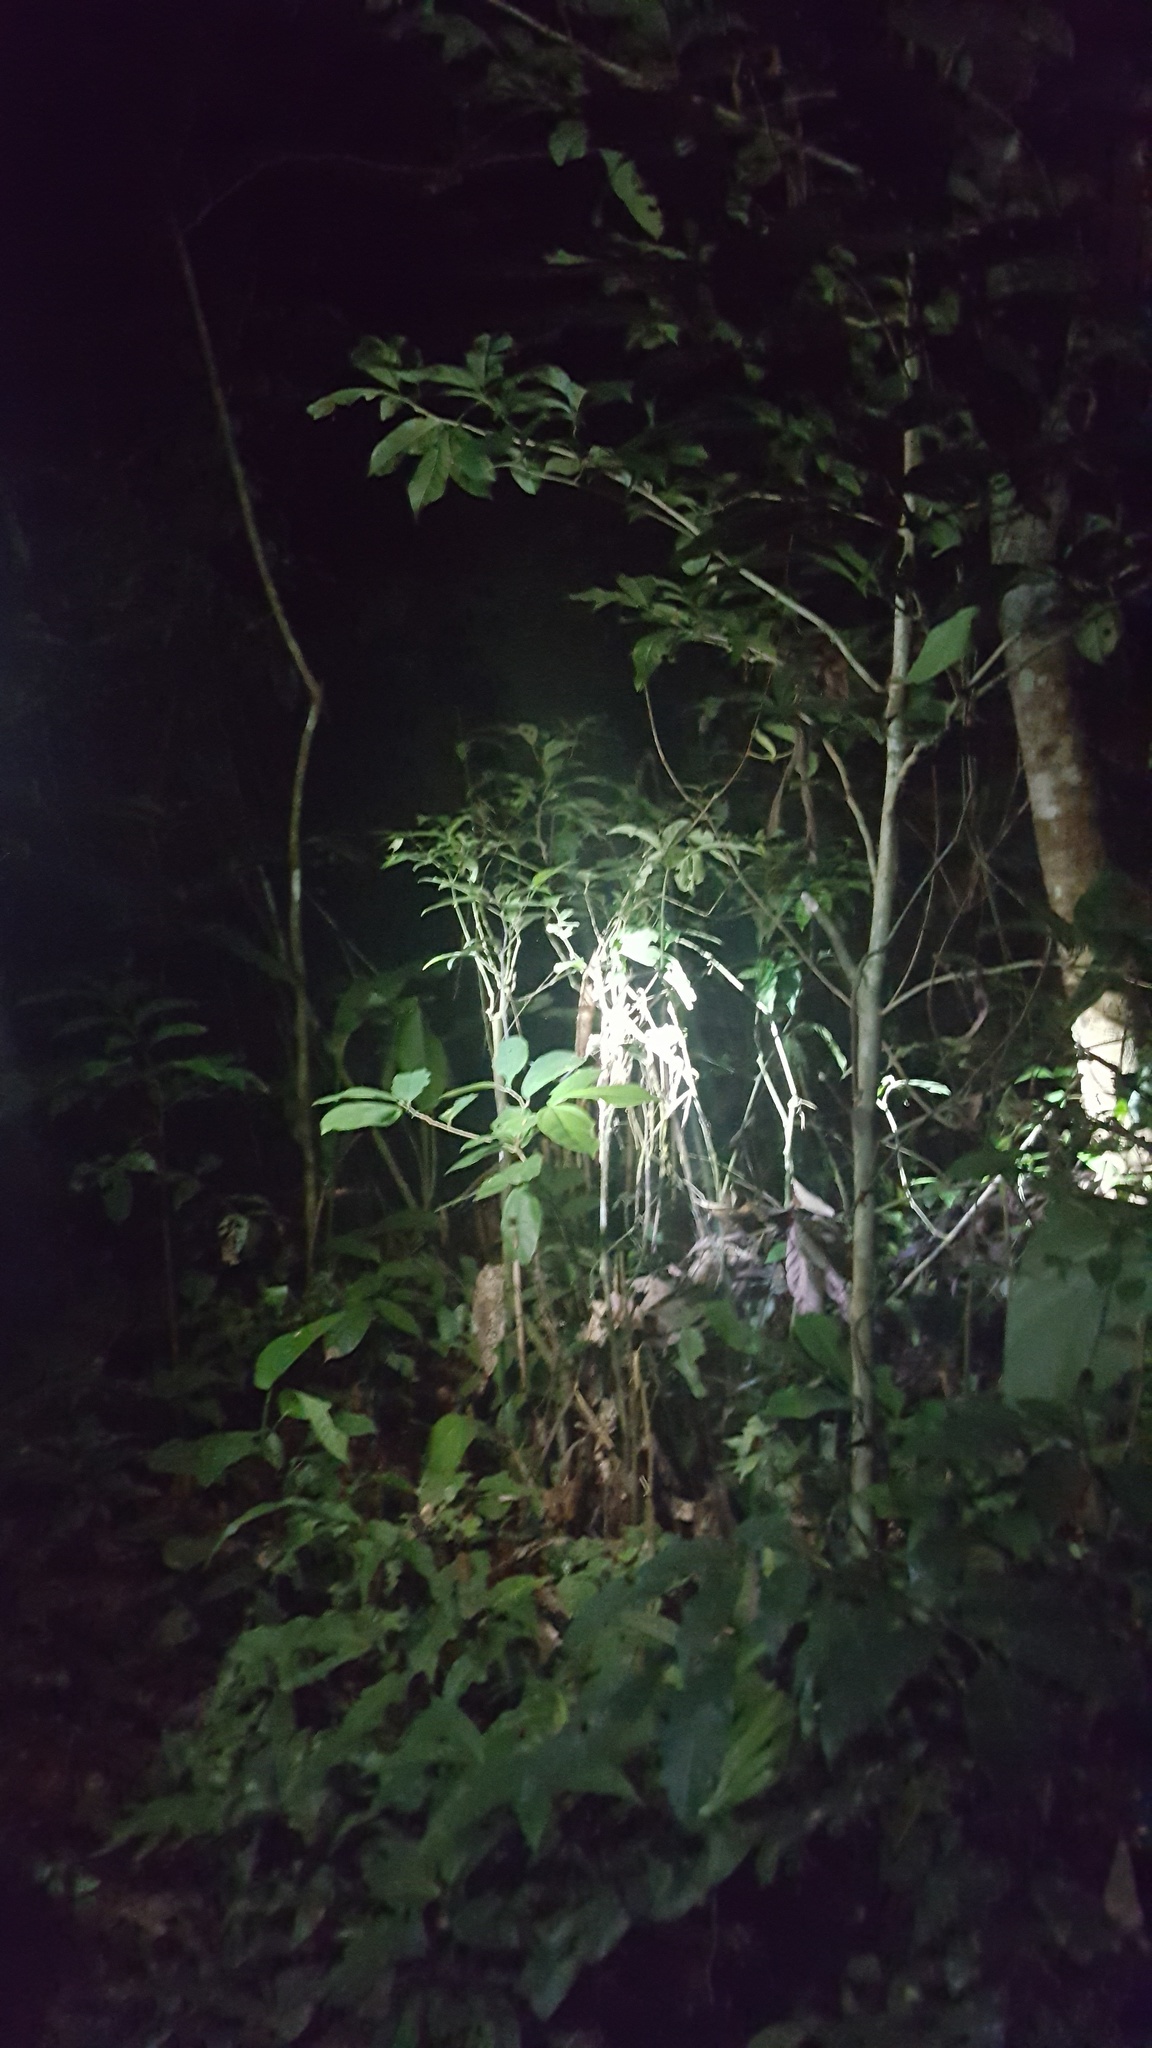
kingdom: Animalia
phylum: Chordata
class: Amphibia
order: Anura
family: Phyllomedusidae
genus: Phyllomedusa
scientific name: Phyllomedusa camba
